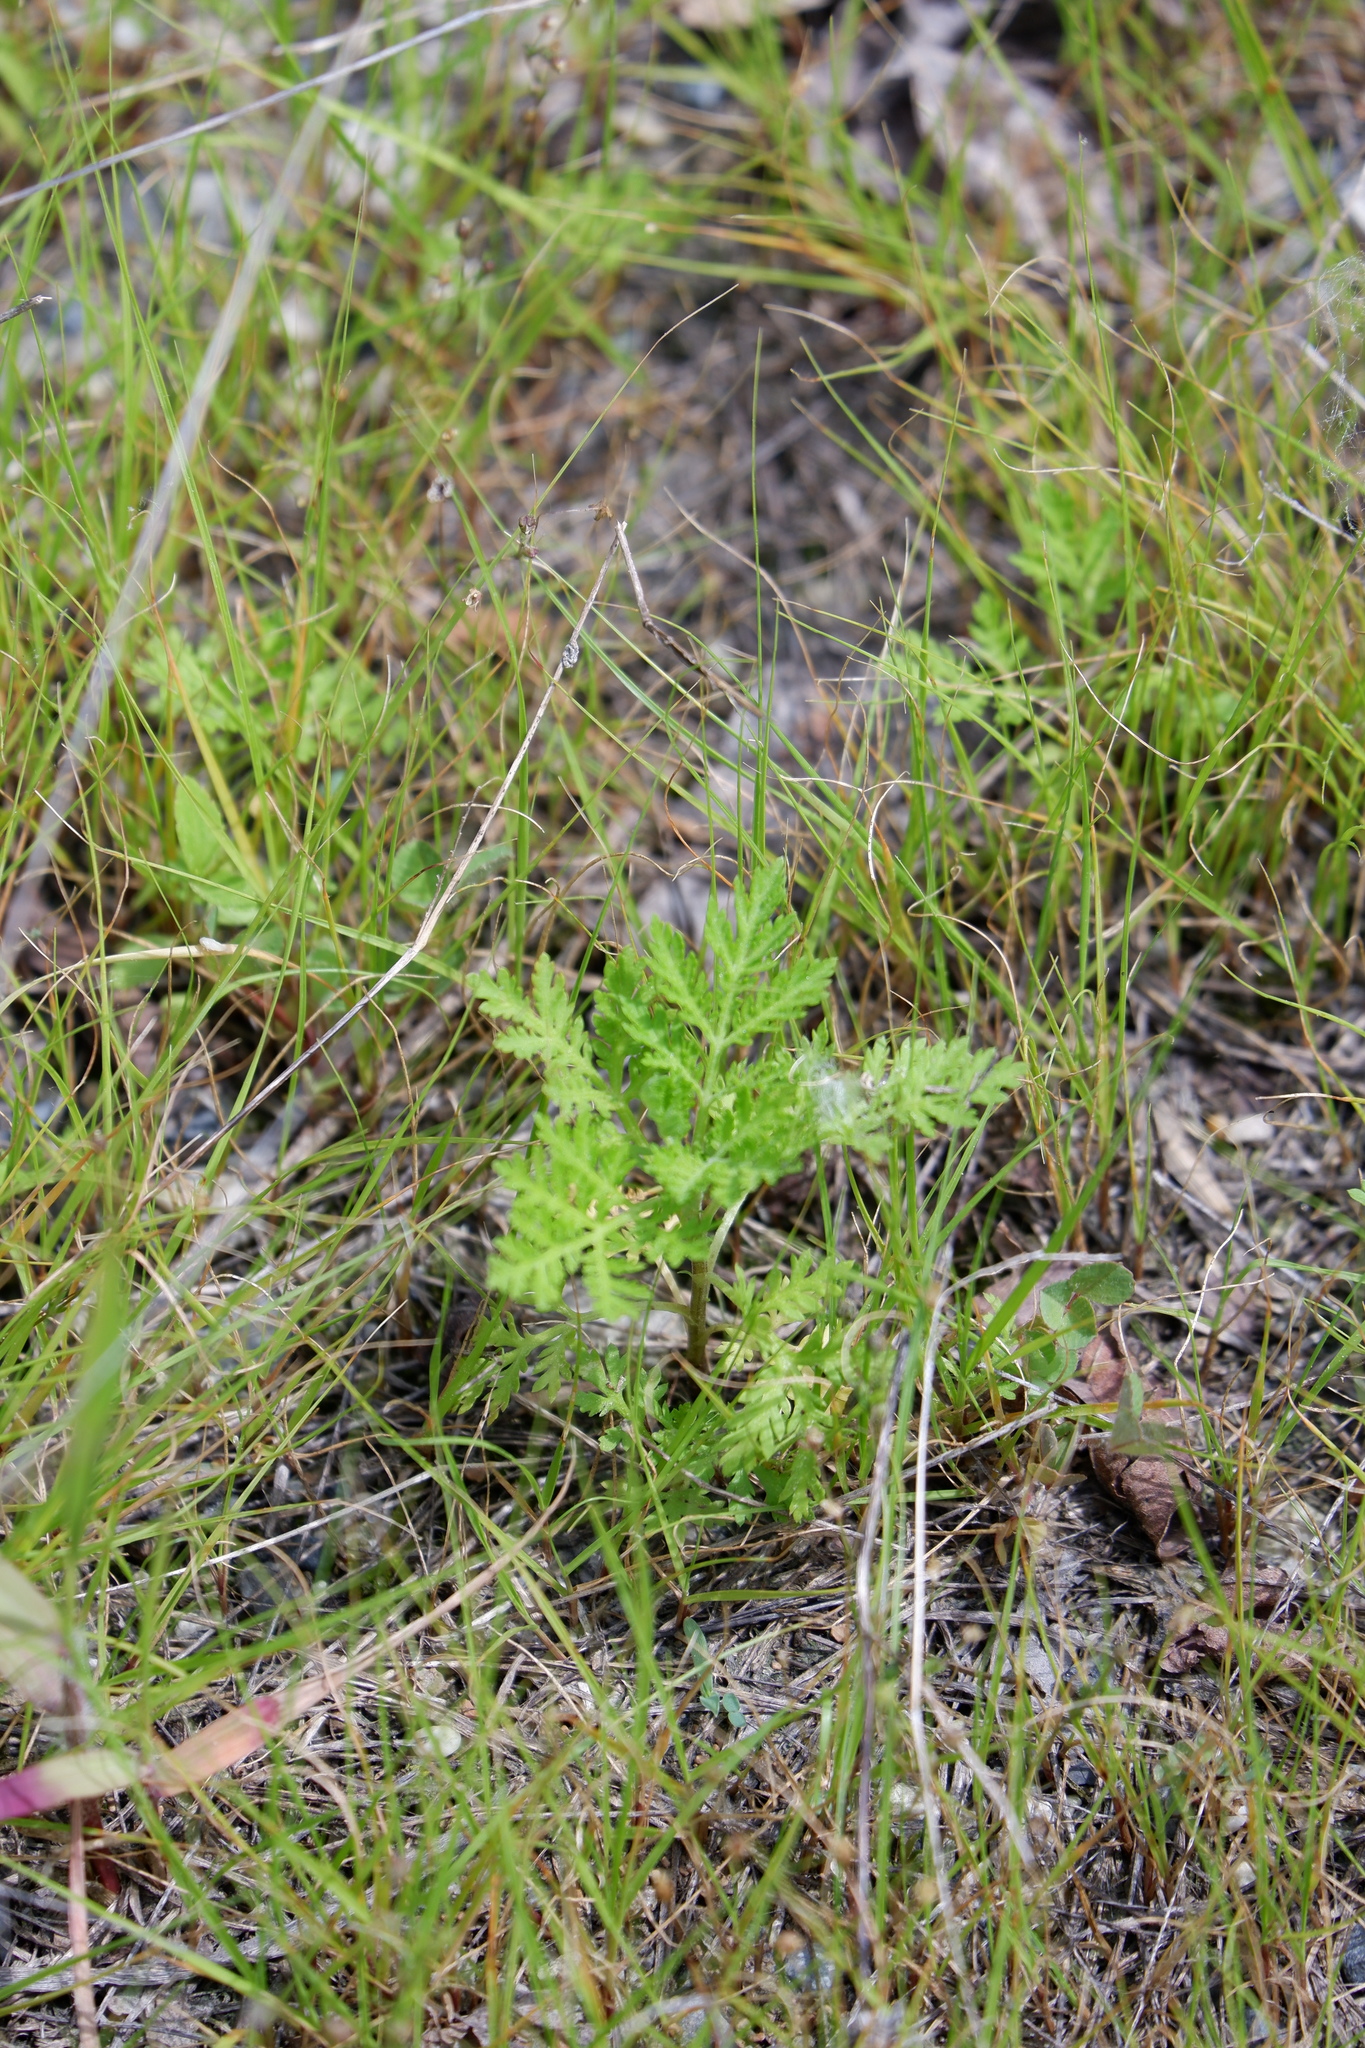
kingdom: Plantae
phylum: Tracheophyta
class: Magnoliopsida
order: Asterales
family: Asteraceae
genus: Artemisia
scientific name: Artemisia annua
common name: Sweet sagewort
